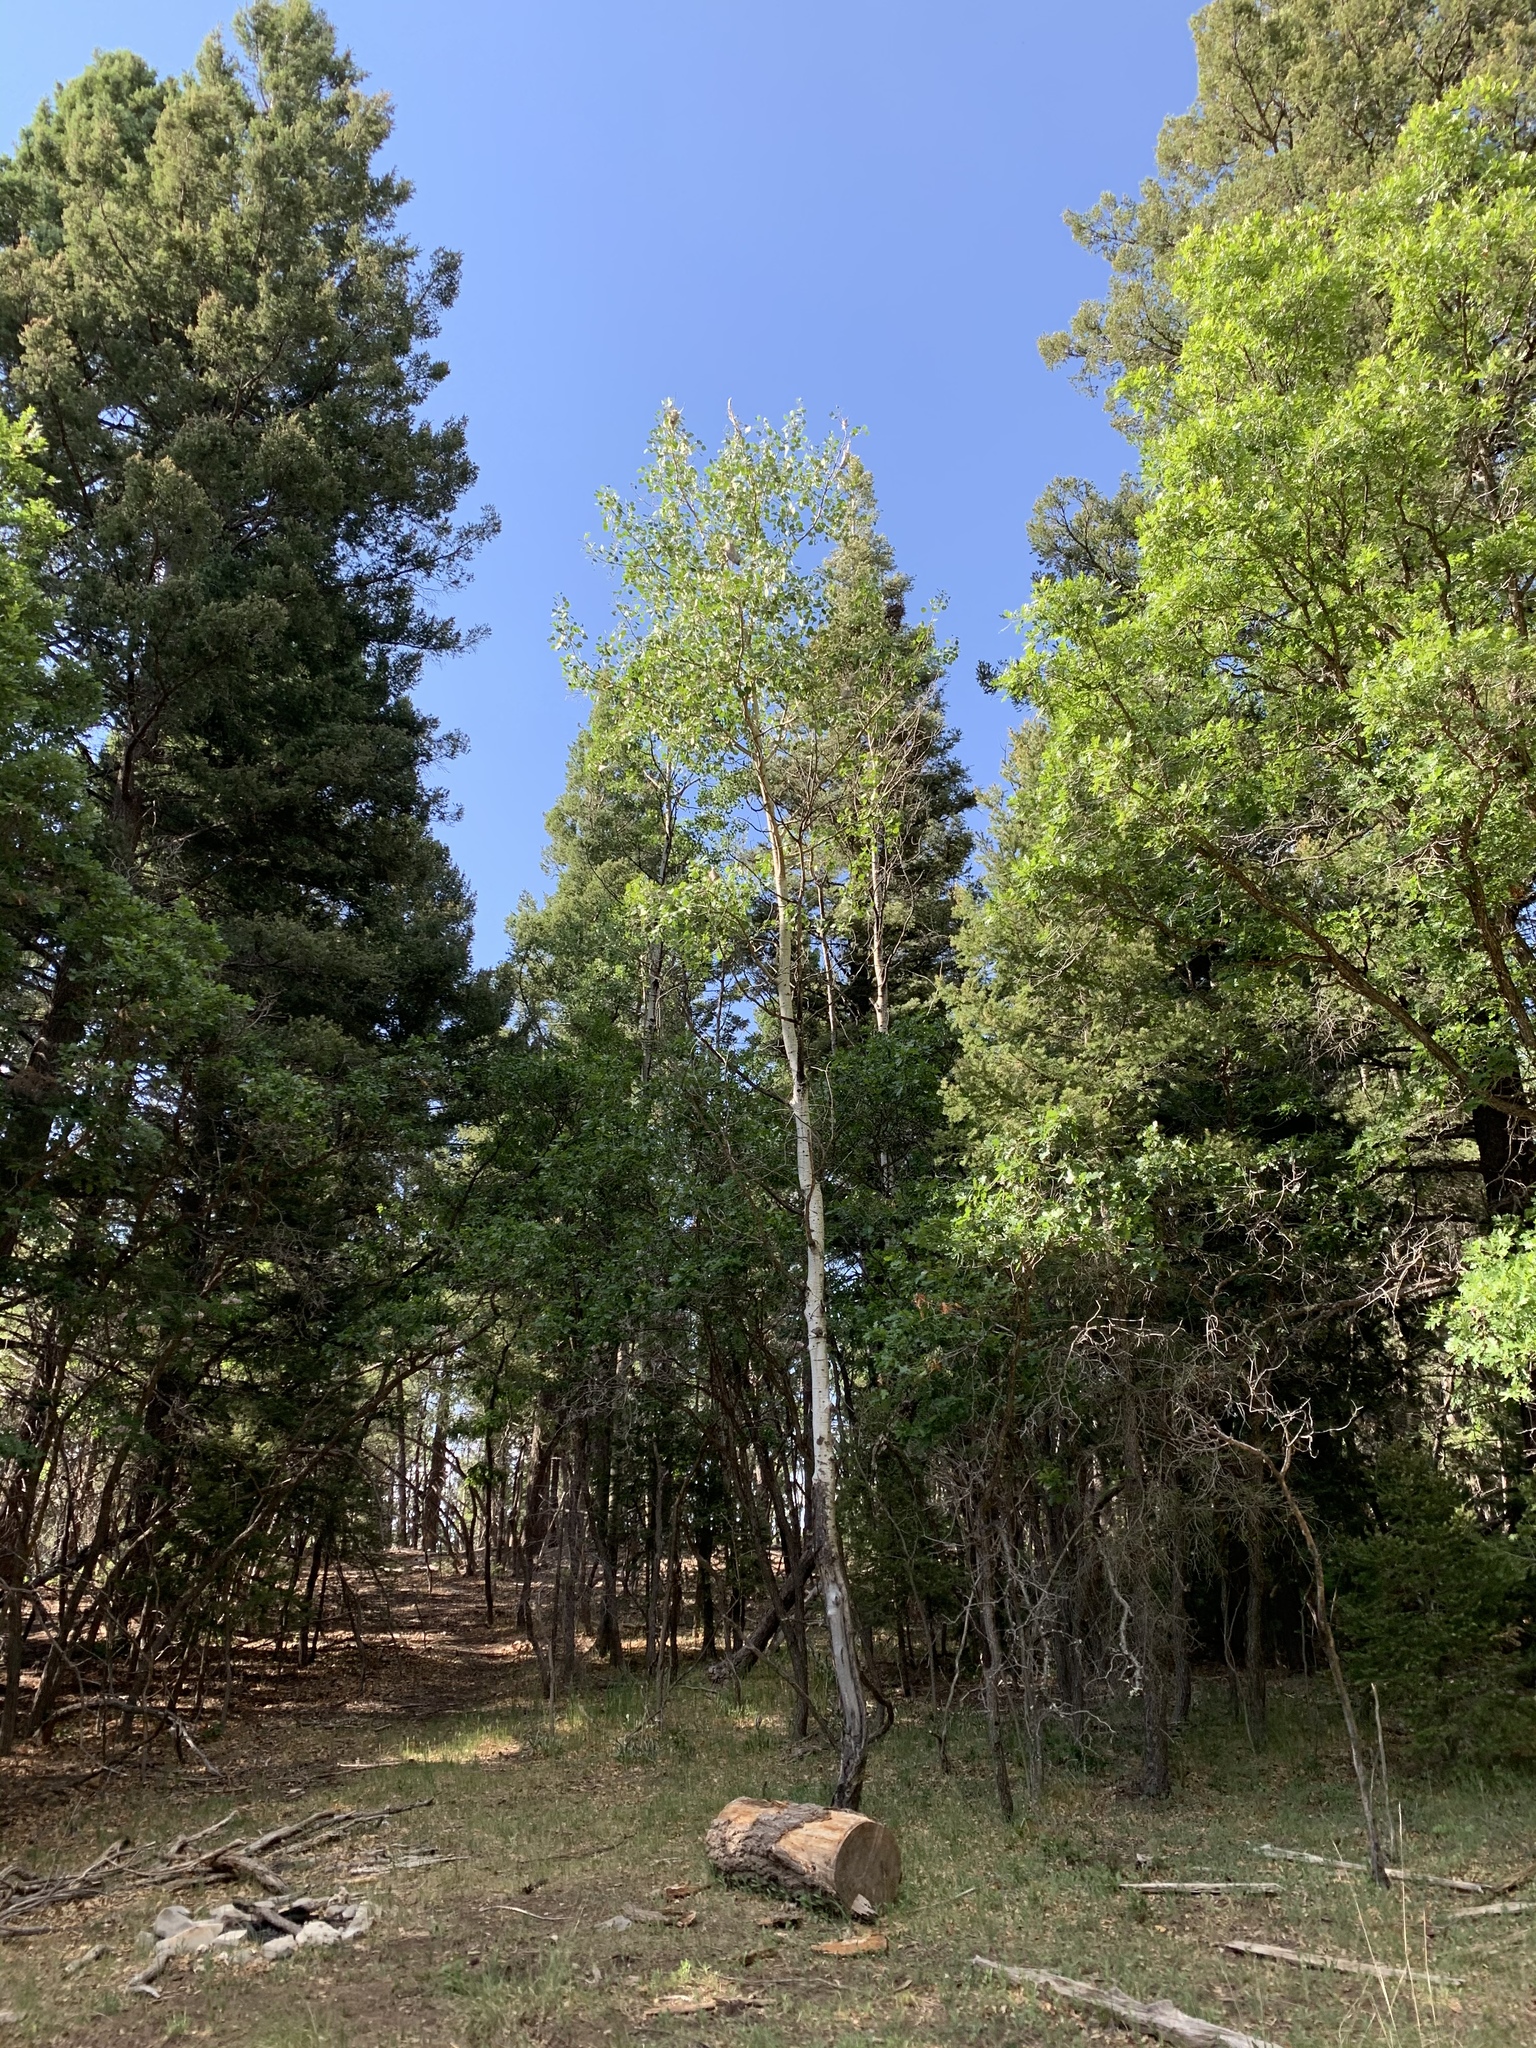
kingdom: Plantae
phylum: Tracheophyta
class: Magnoliopsida
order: Malpighiales
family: Salicaceae
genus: Populus
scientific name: Populus tremuloides
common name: Quaking aspen
